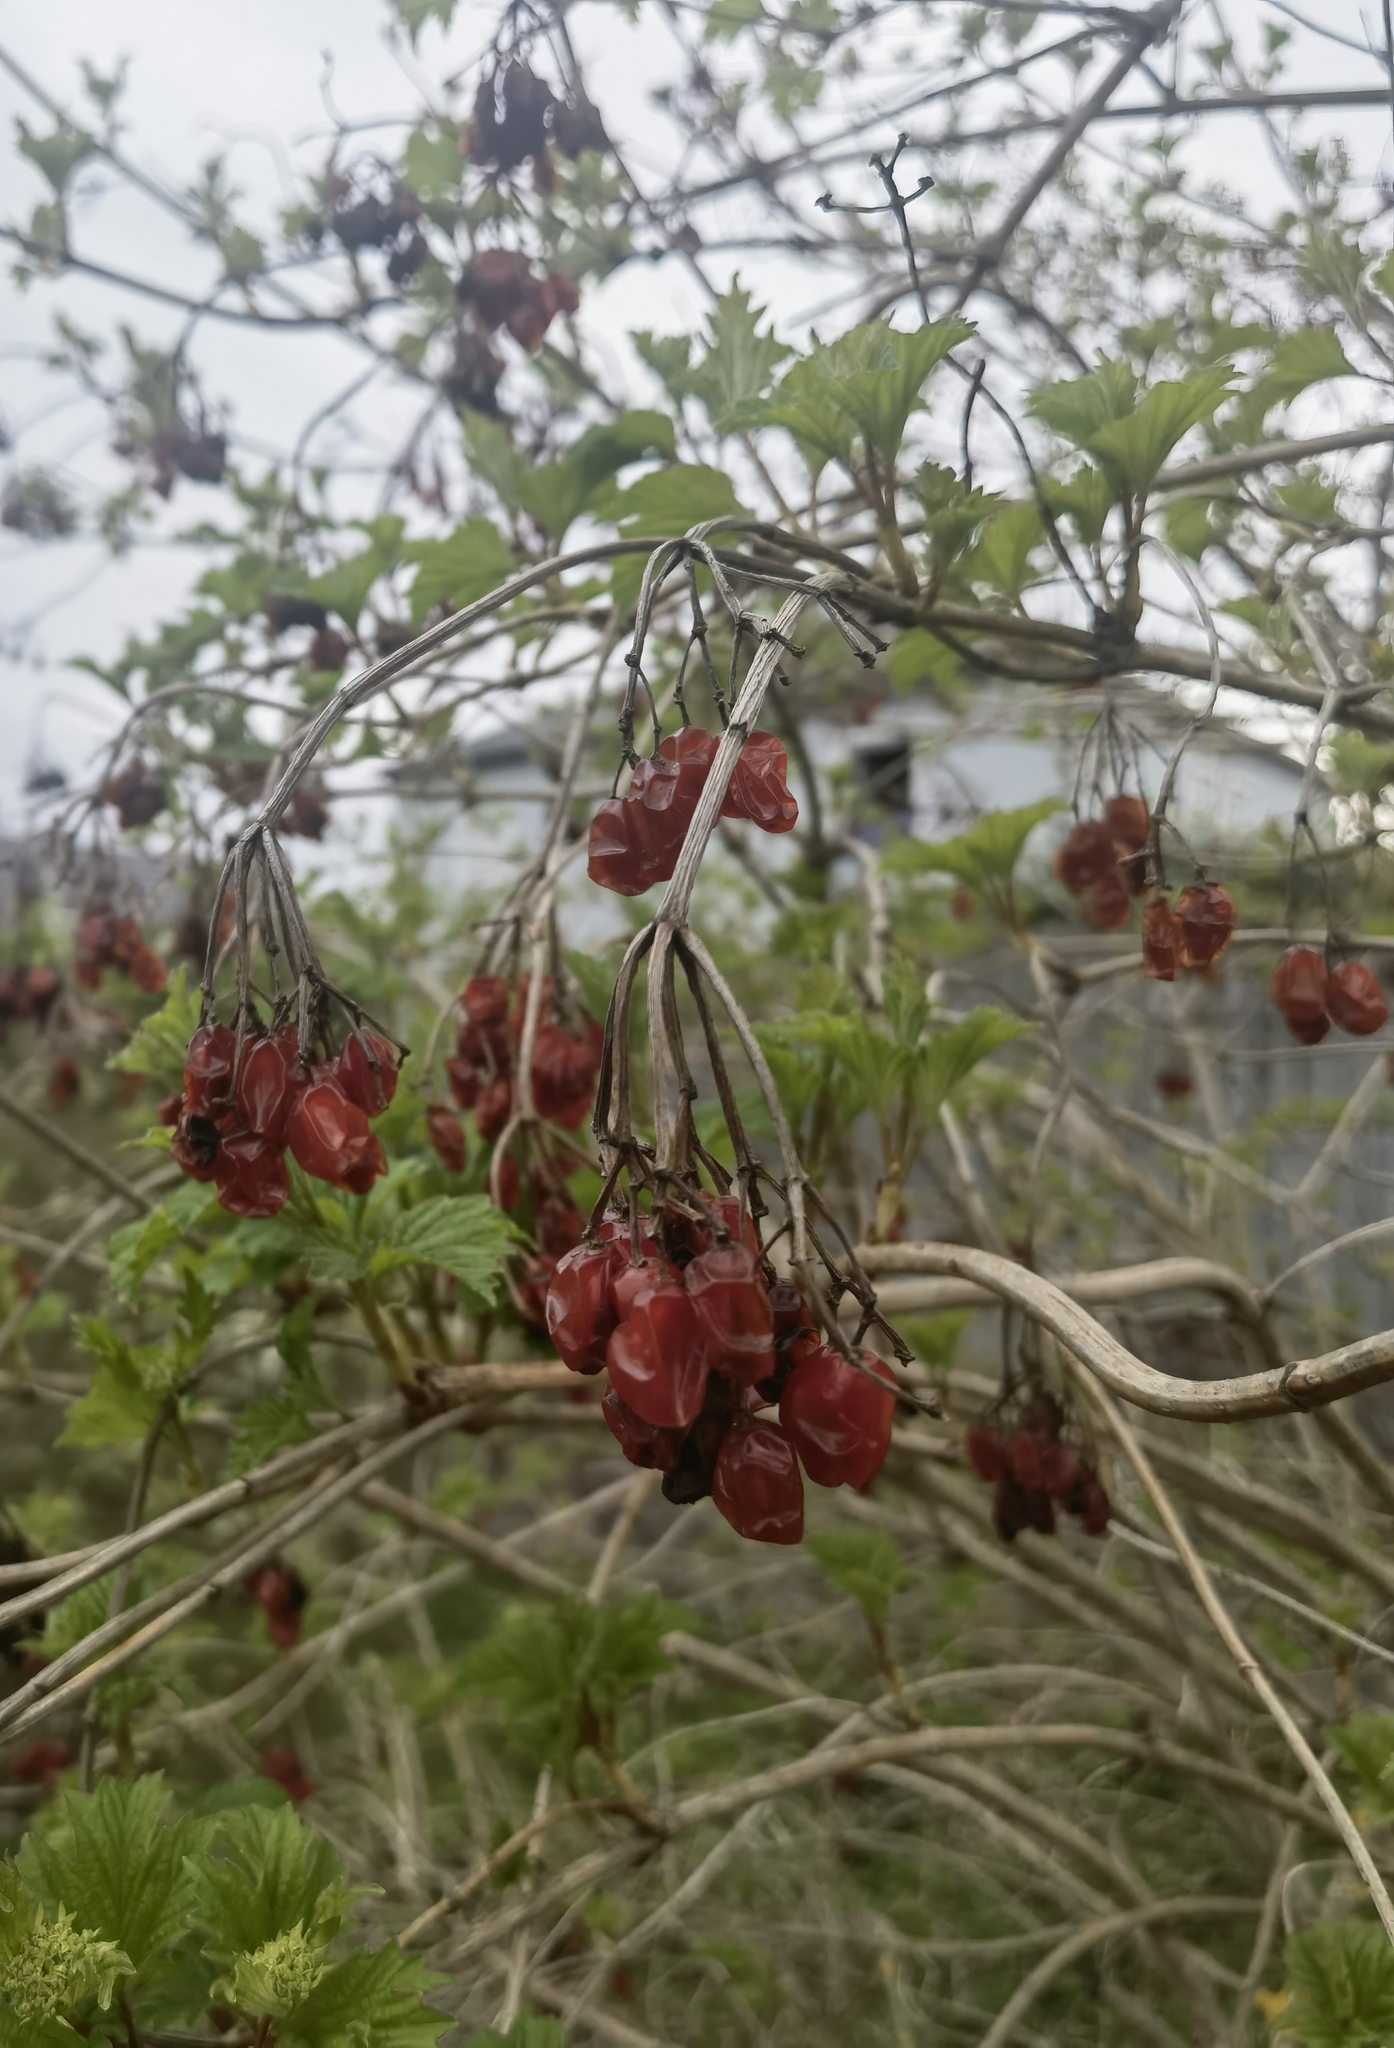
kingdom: Plantae
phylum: Tracheophyta
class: Magnoliopsida
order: Dipsacales
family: Viburnaceae
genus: Viburnum
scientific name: Viburnum opulus
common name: Guelder-rose
